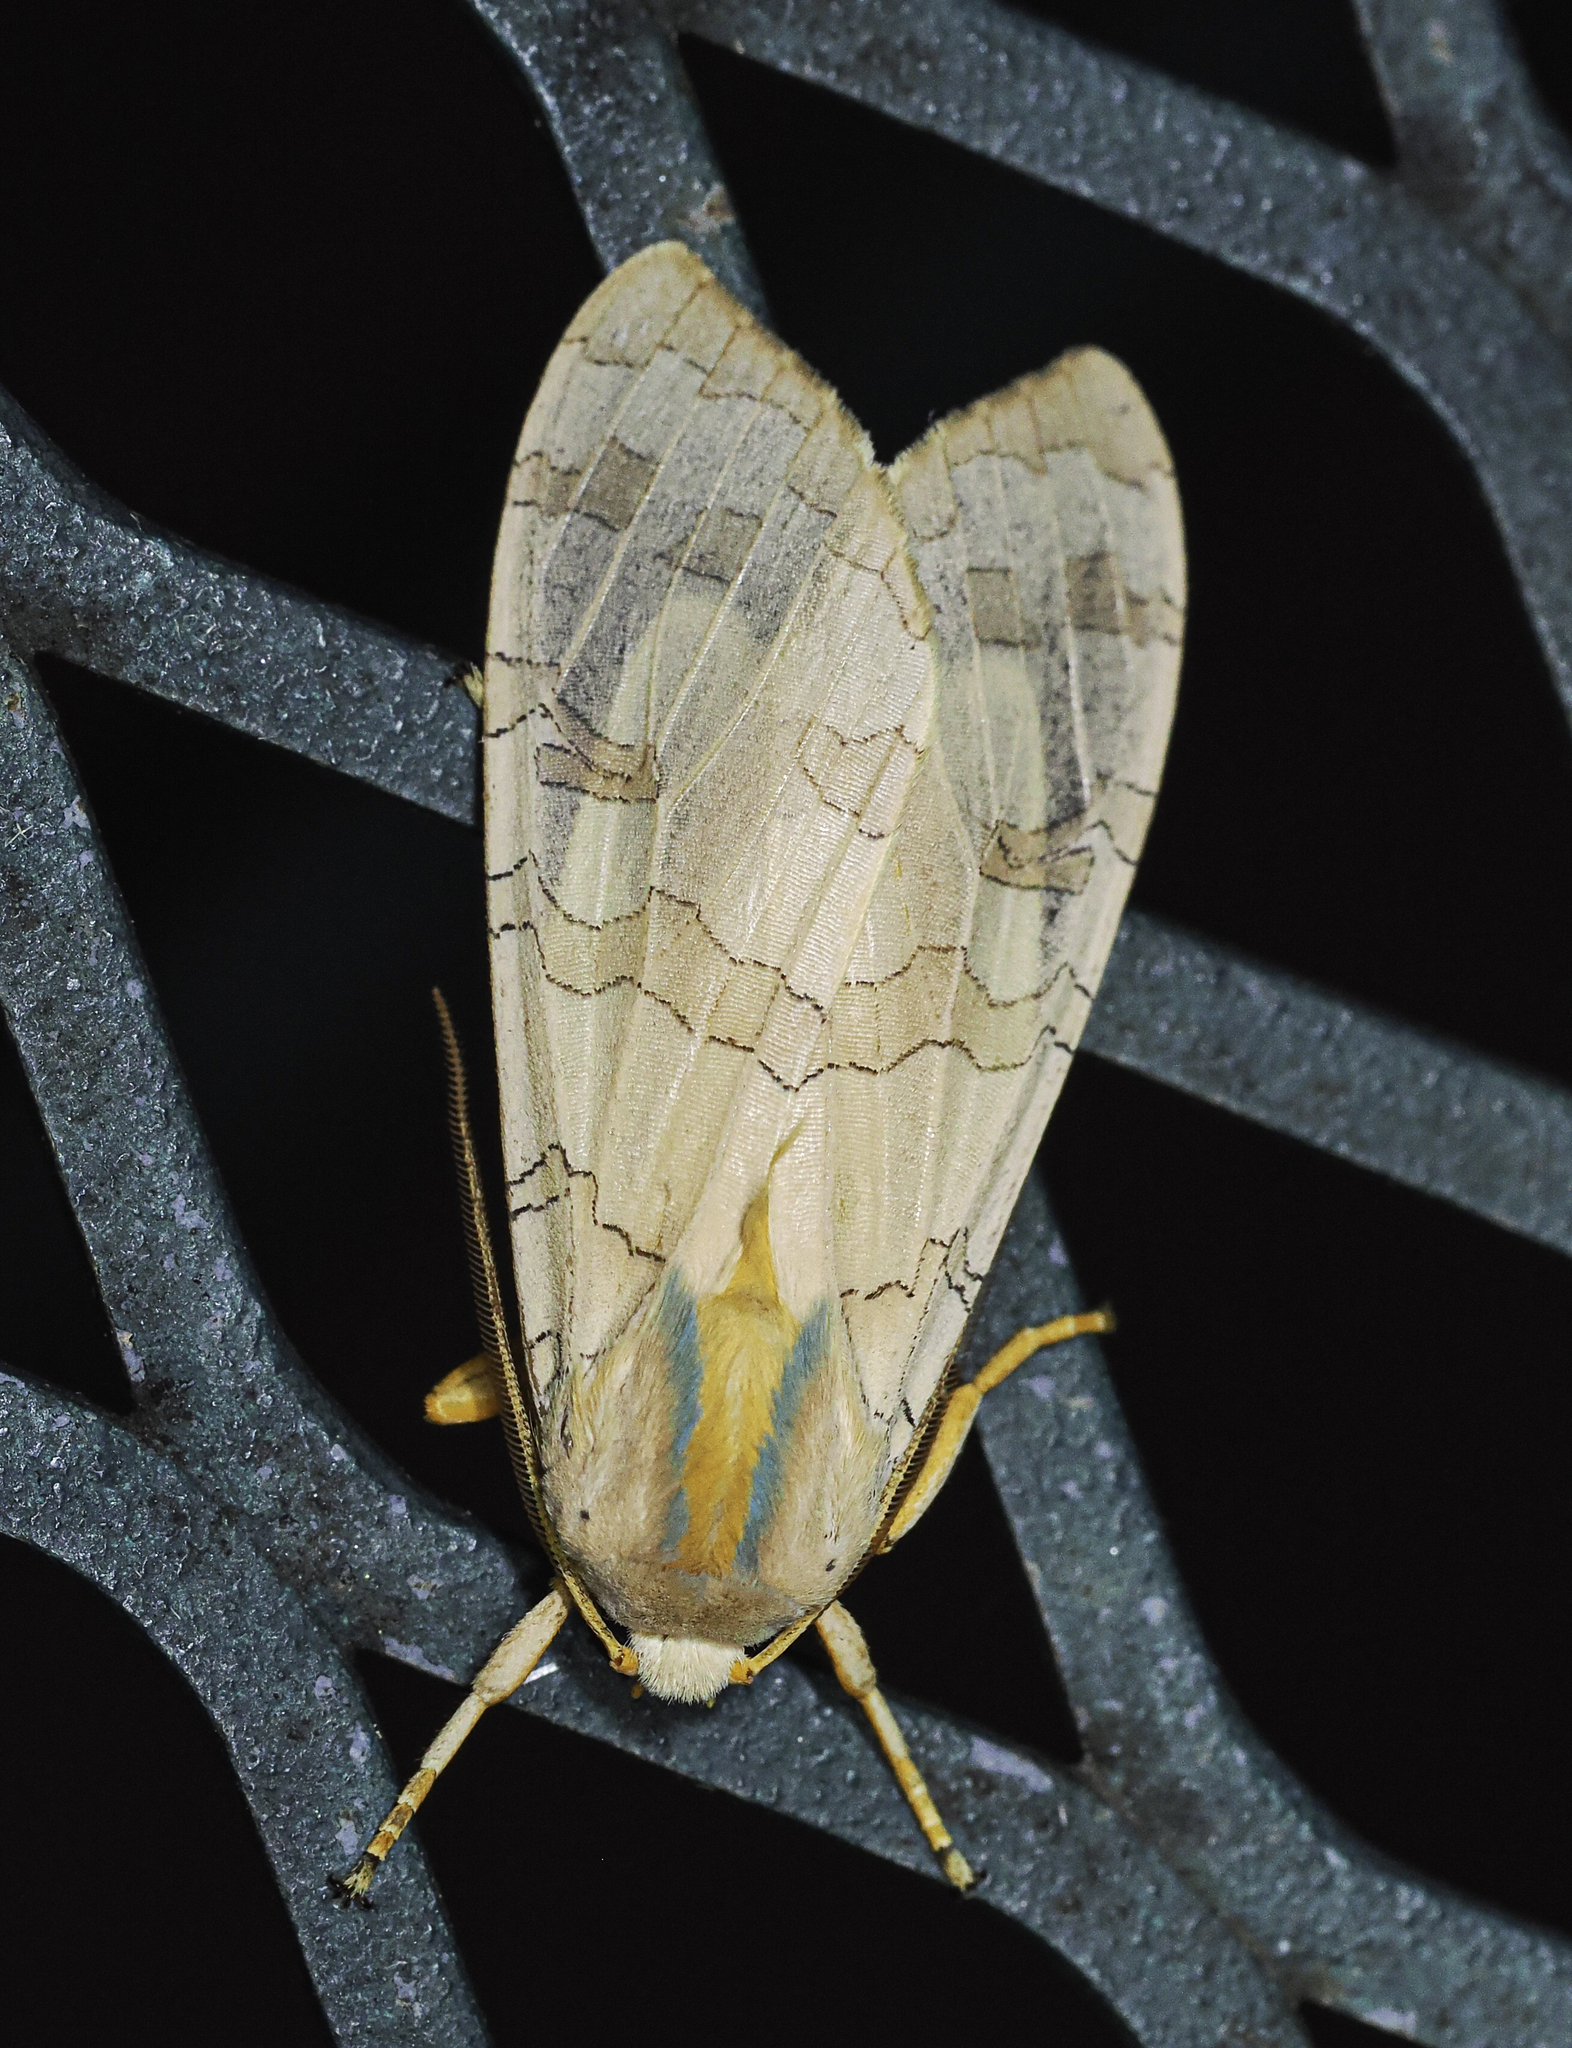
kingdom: Animalia
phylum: Arthropoda
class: Insecta
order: Lepidoptera
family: Erebidae
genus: Halysidota
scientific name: Halysidota
